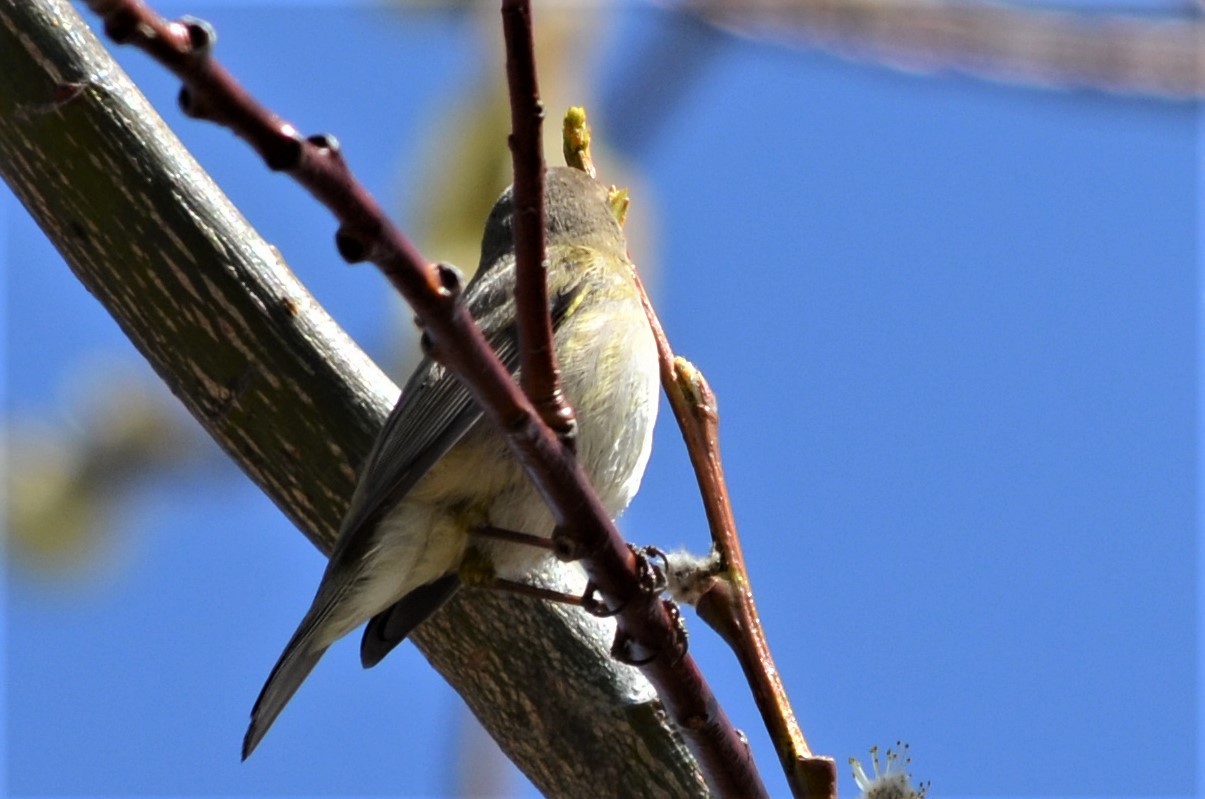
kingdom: Animalia
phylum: Chordata
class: Aves
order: Passeriformes
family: Phylloscopidae
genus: Phylloscopus
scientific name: Phylloscopus collybita
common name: Common chiffchaff
